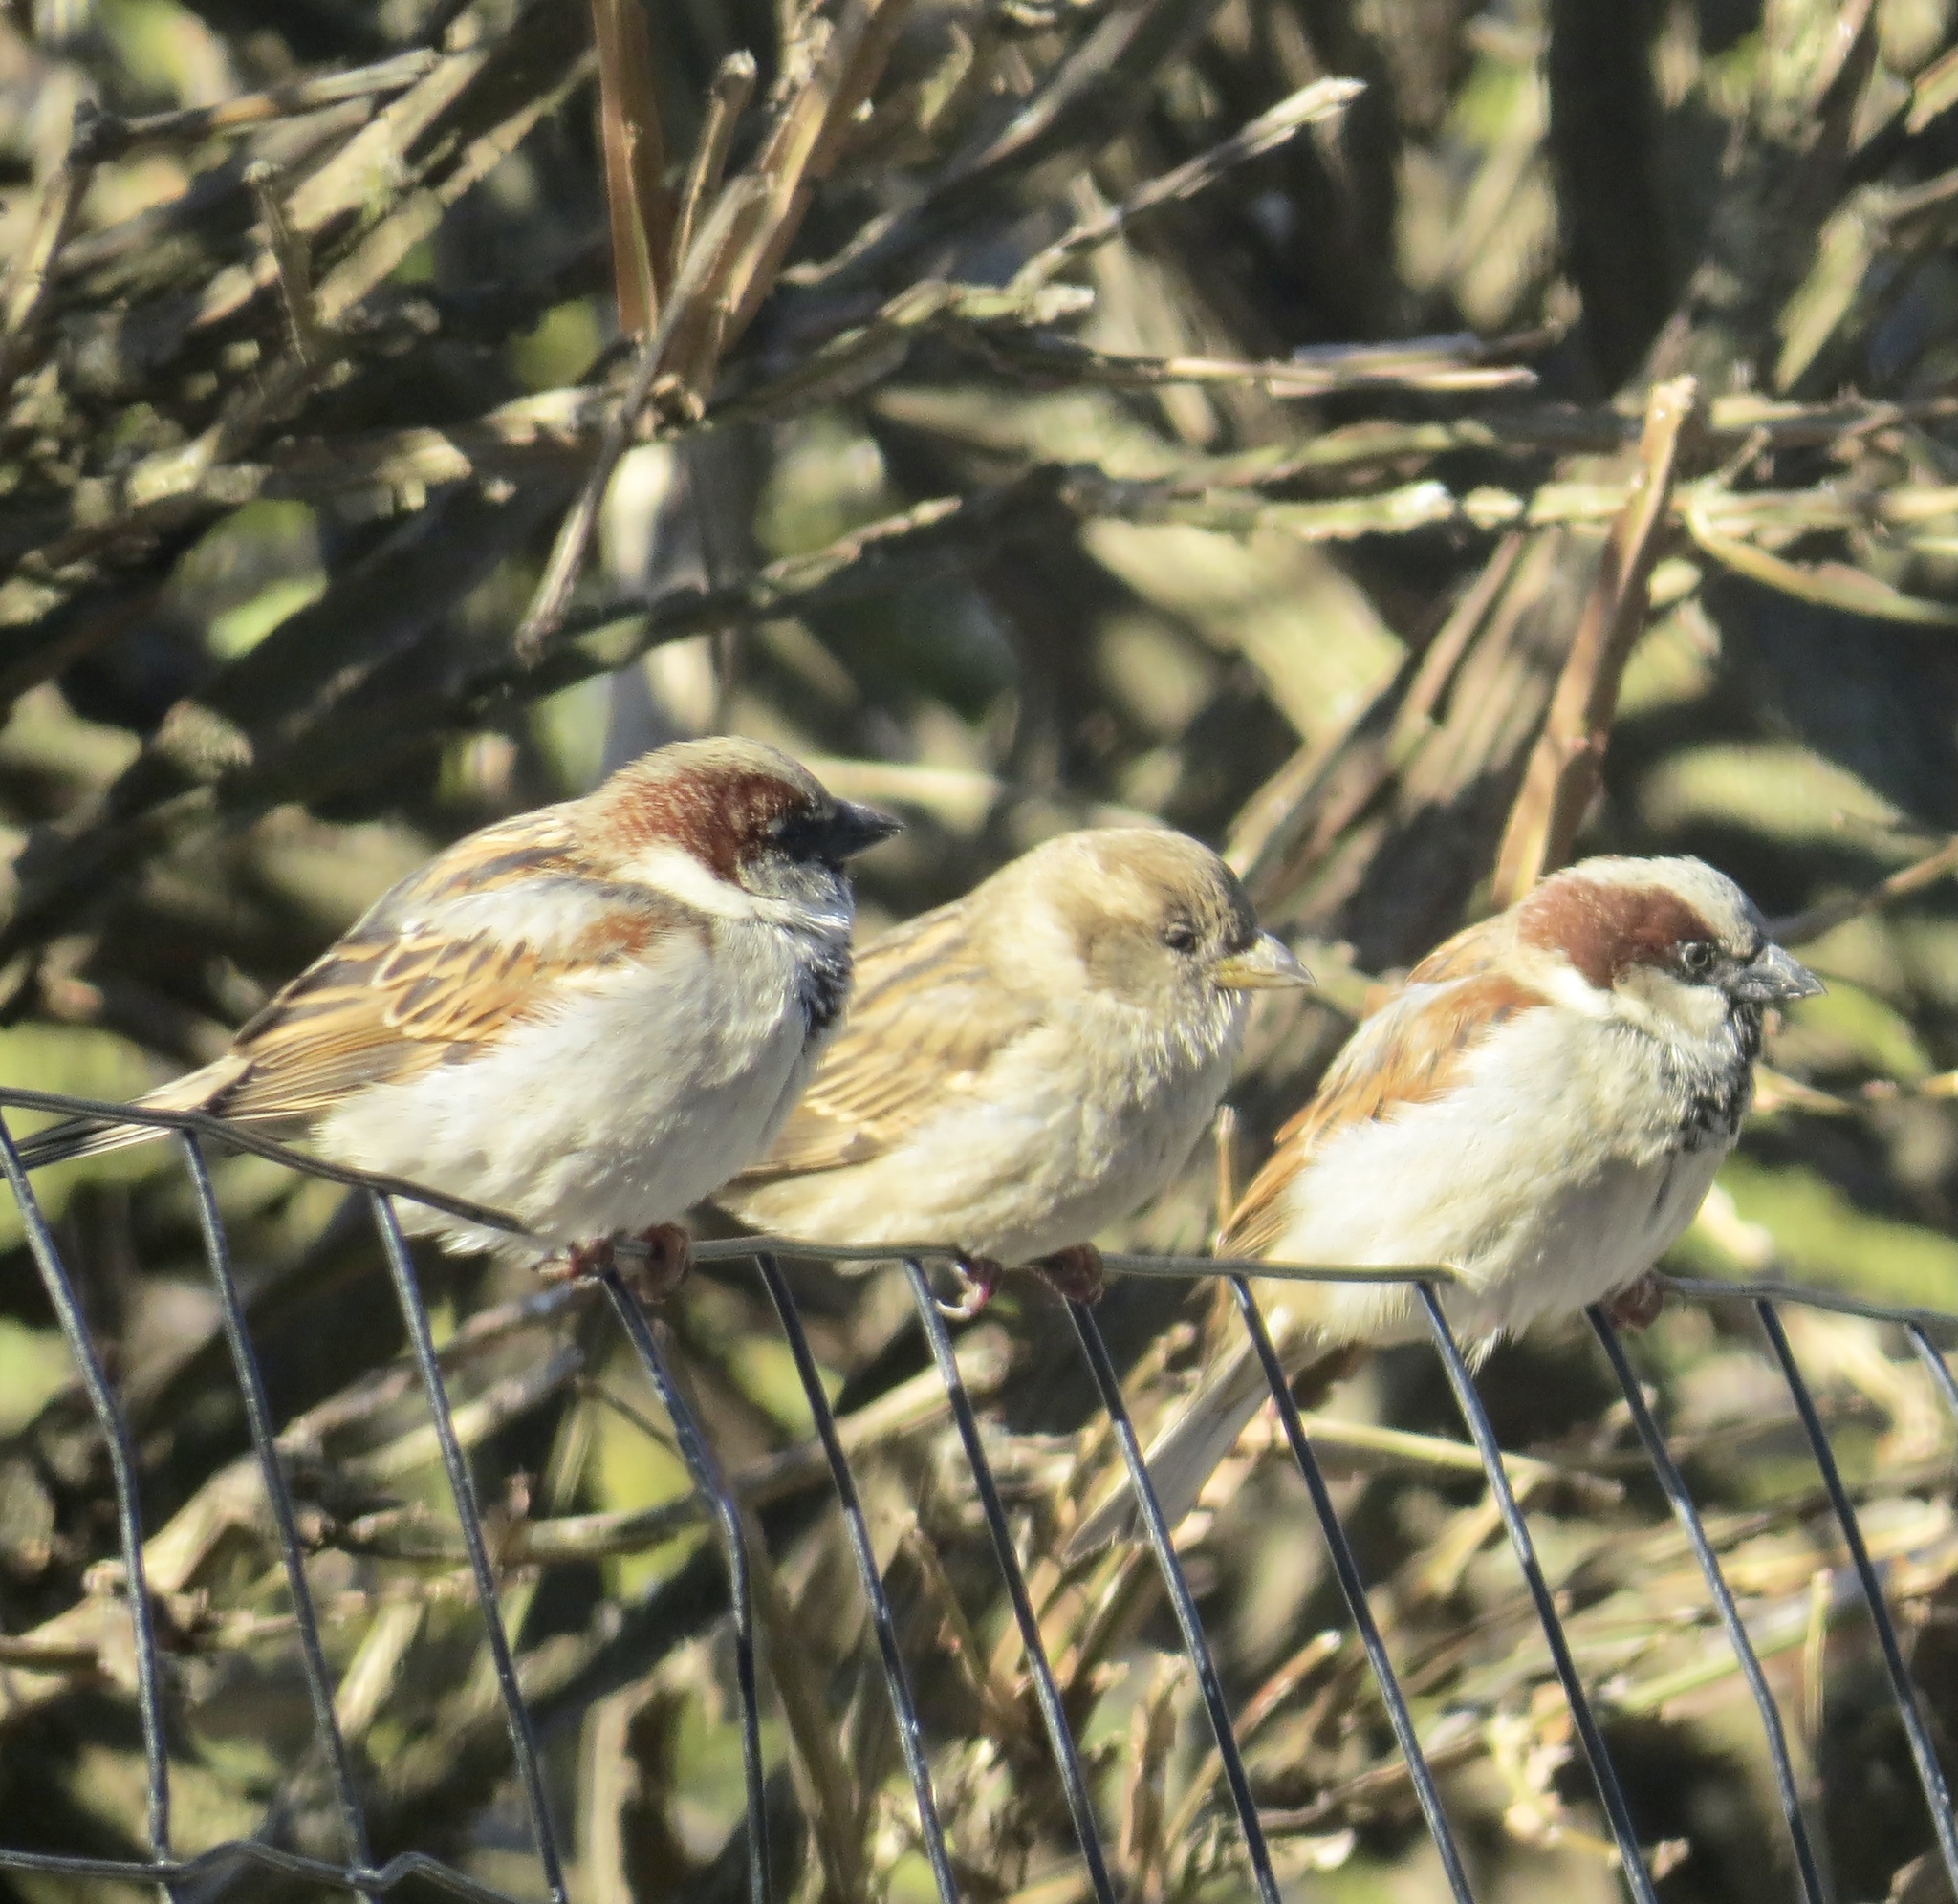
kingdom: Animalia
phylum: Chordata
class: Aves
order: Passeriformes
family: Passeridae
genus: Passer
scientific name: Passer domesticus
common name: House sparrow
